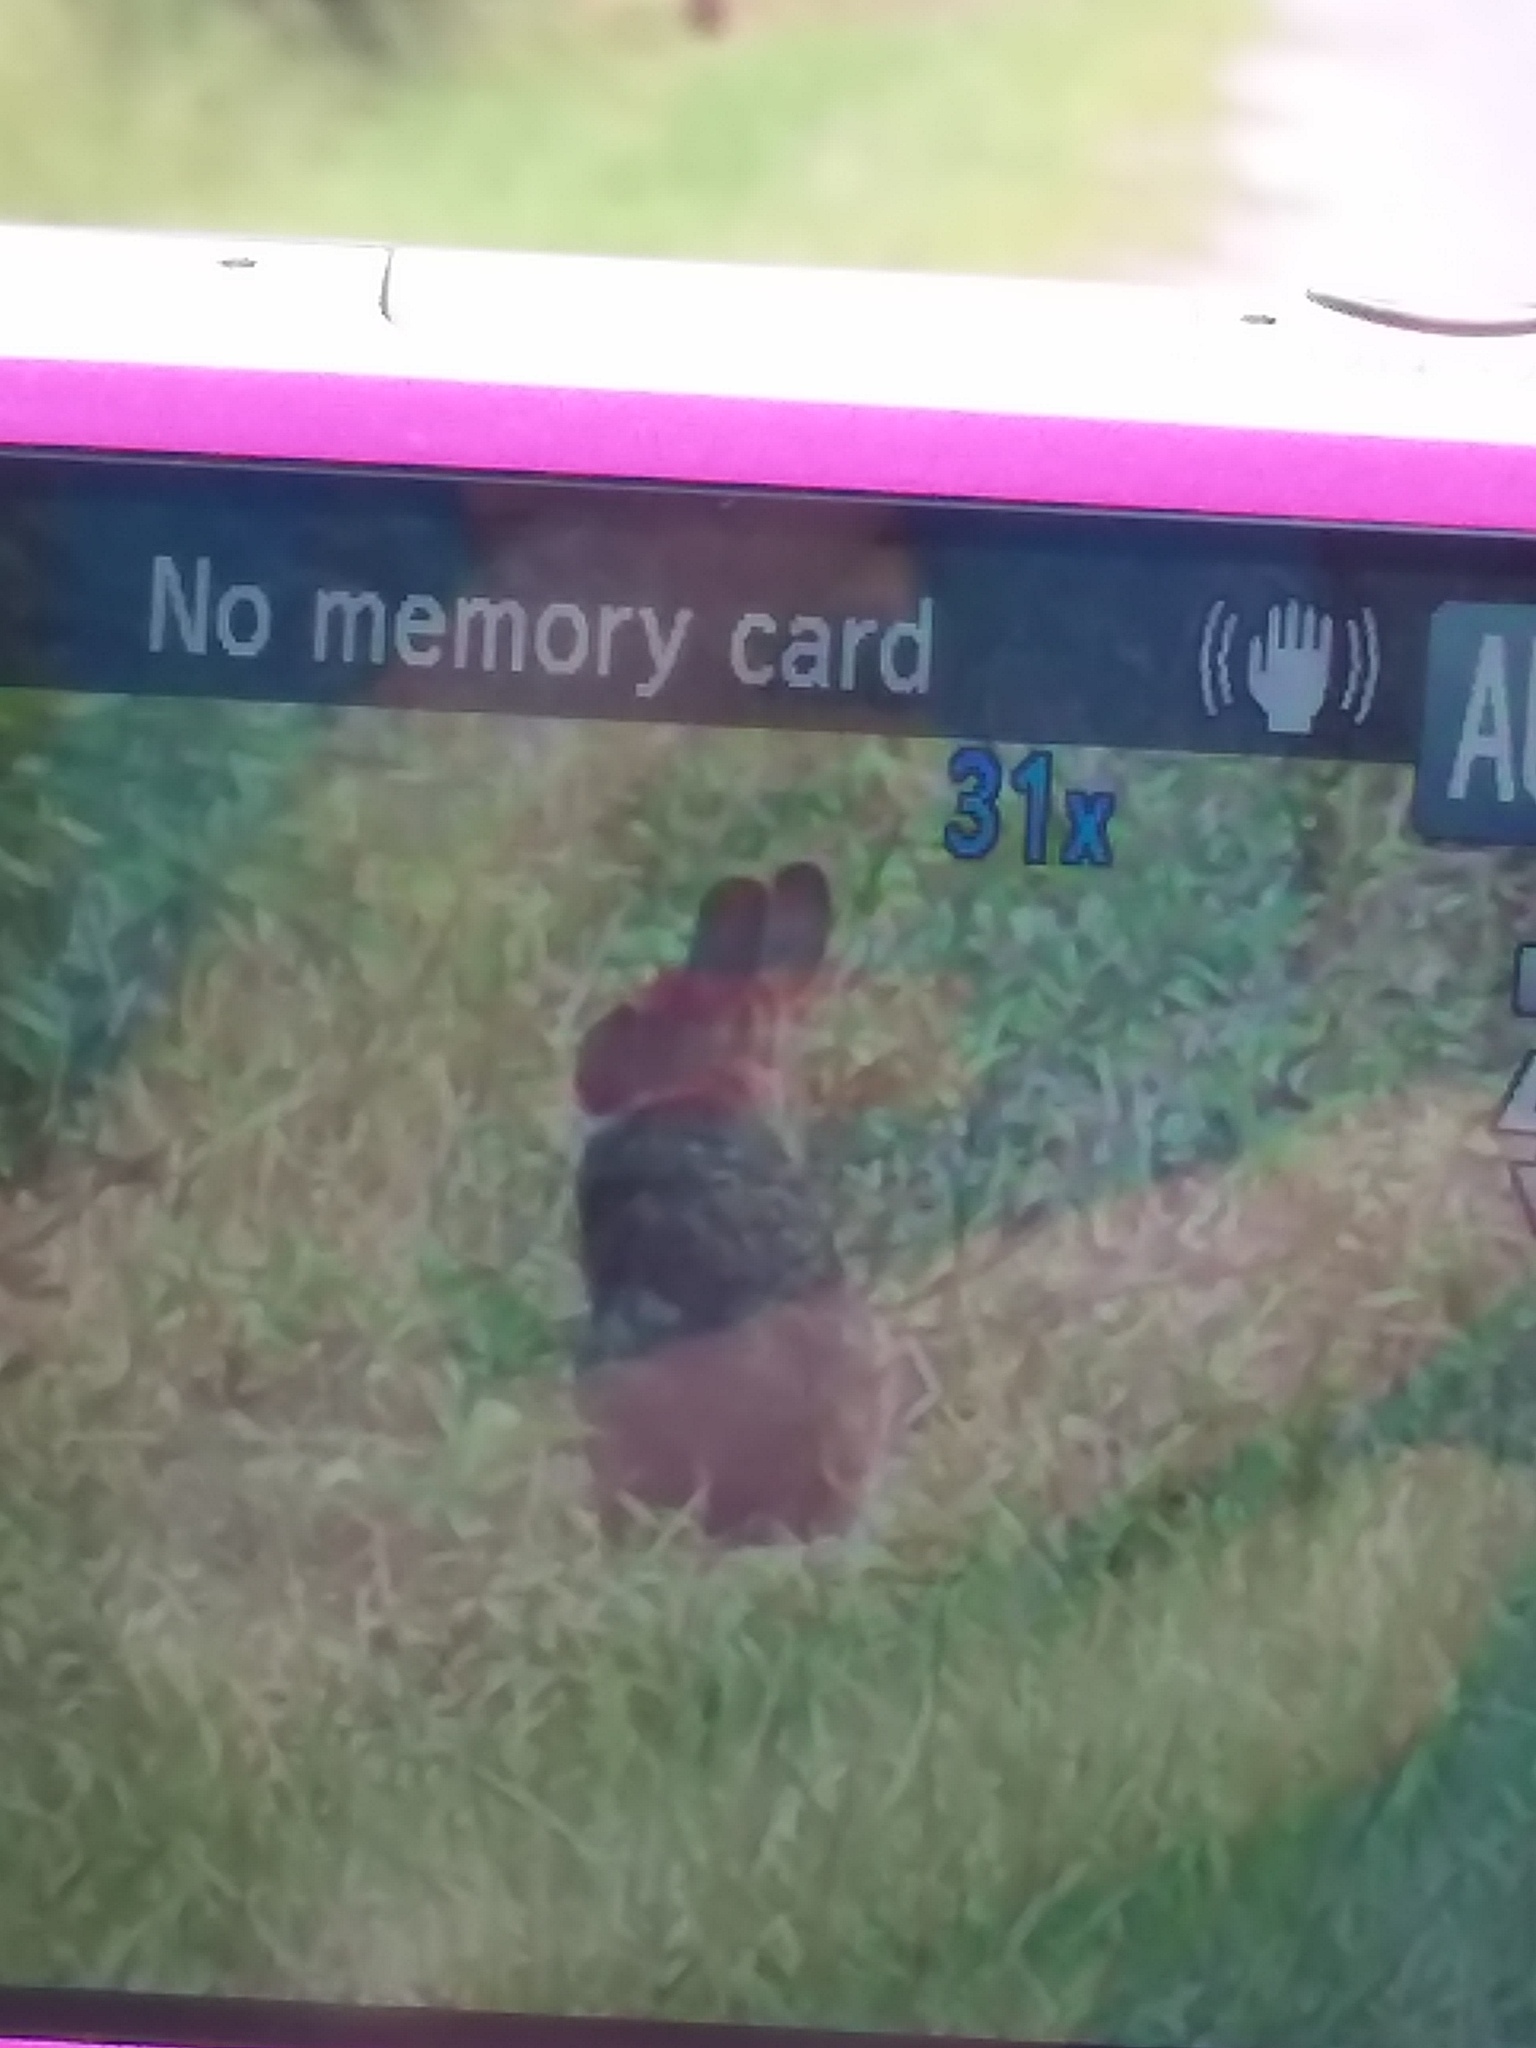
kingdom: Animalia
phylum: Chordata
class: Mammalia
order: Lagomorpha
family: Leporidae
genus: Sylvilagus
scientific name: Sylvilagus palustris
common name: Marsh rabbit
